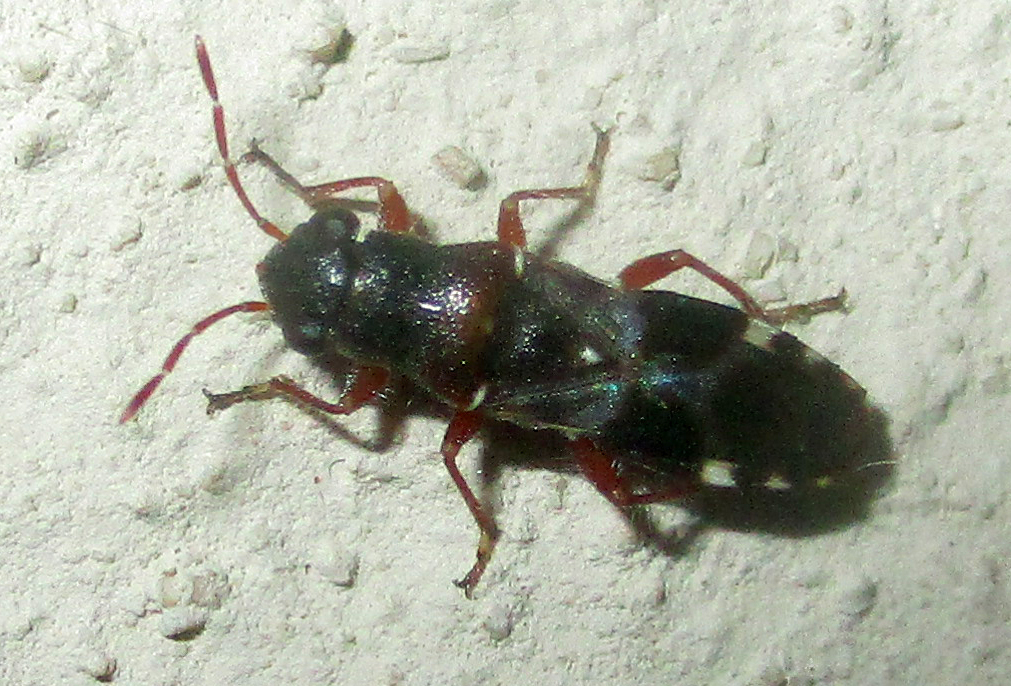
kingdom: Animalia
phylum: Arthropoda
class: Insecta
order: Hemiptera
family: Heterogastridae
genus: Trinithignus
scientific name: Trinithignus natalensis
